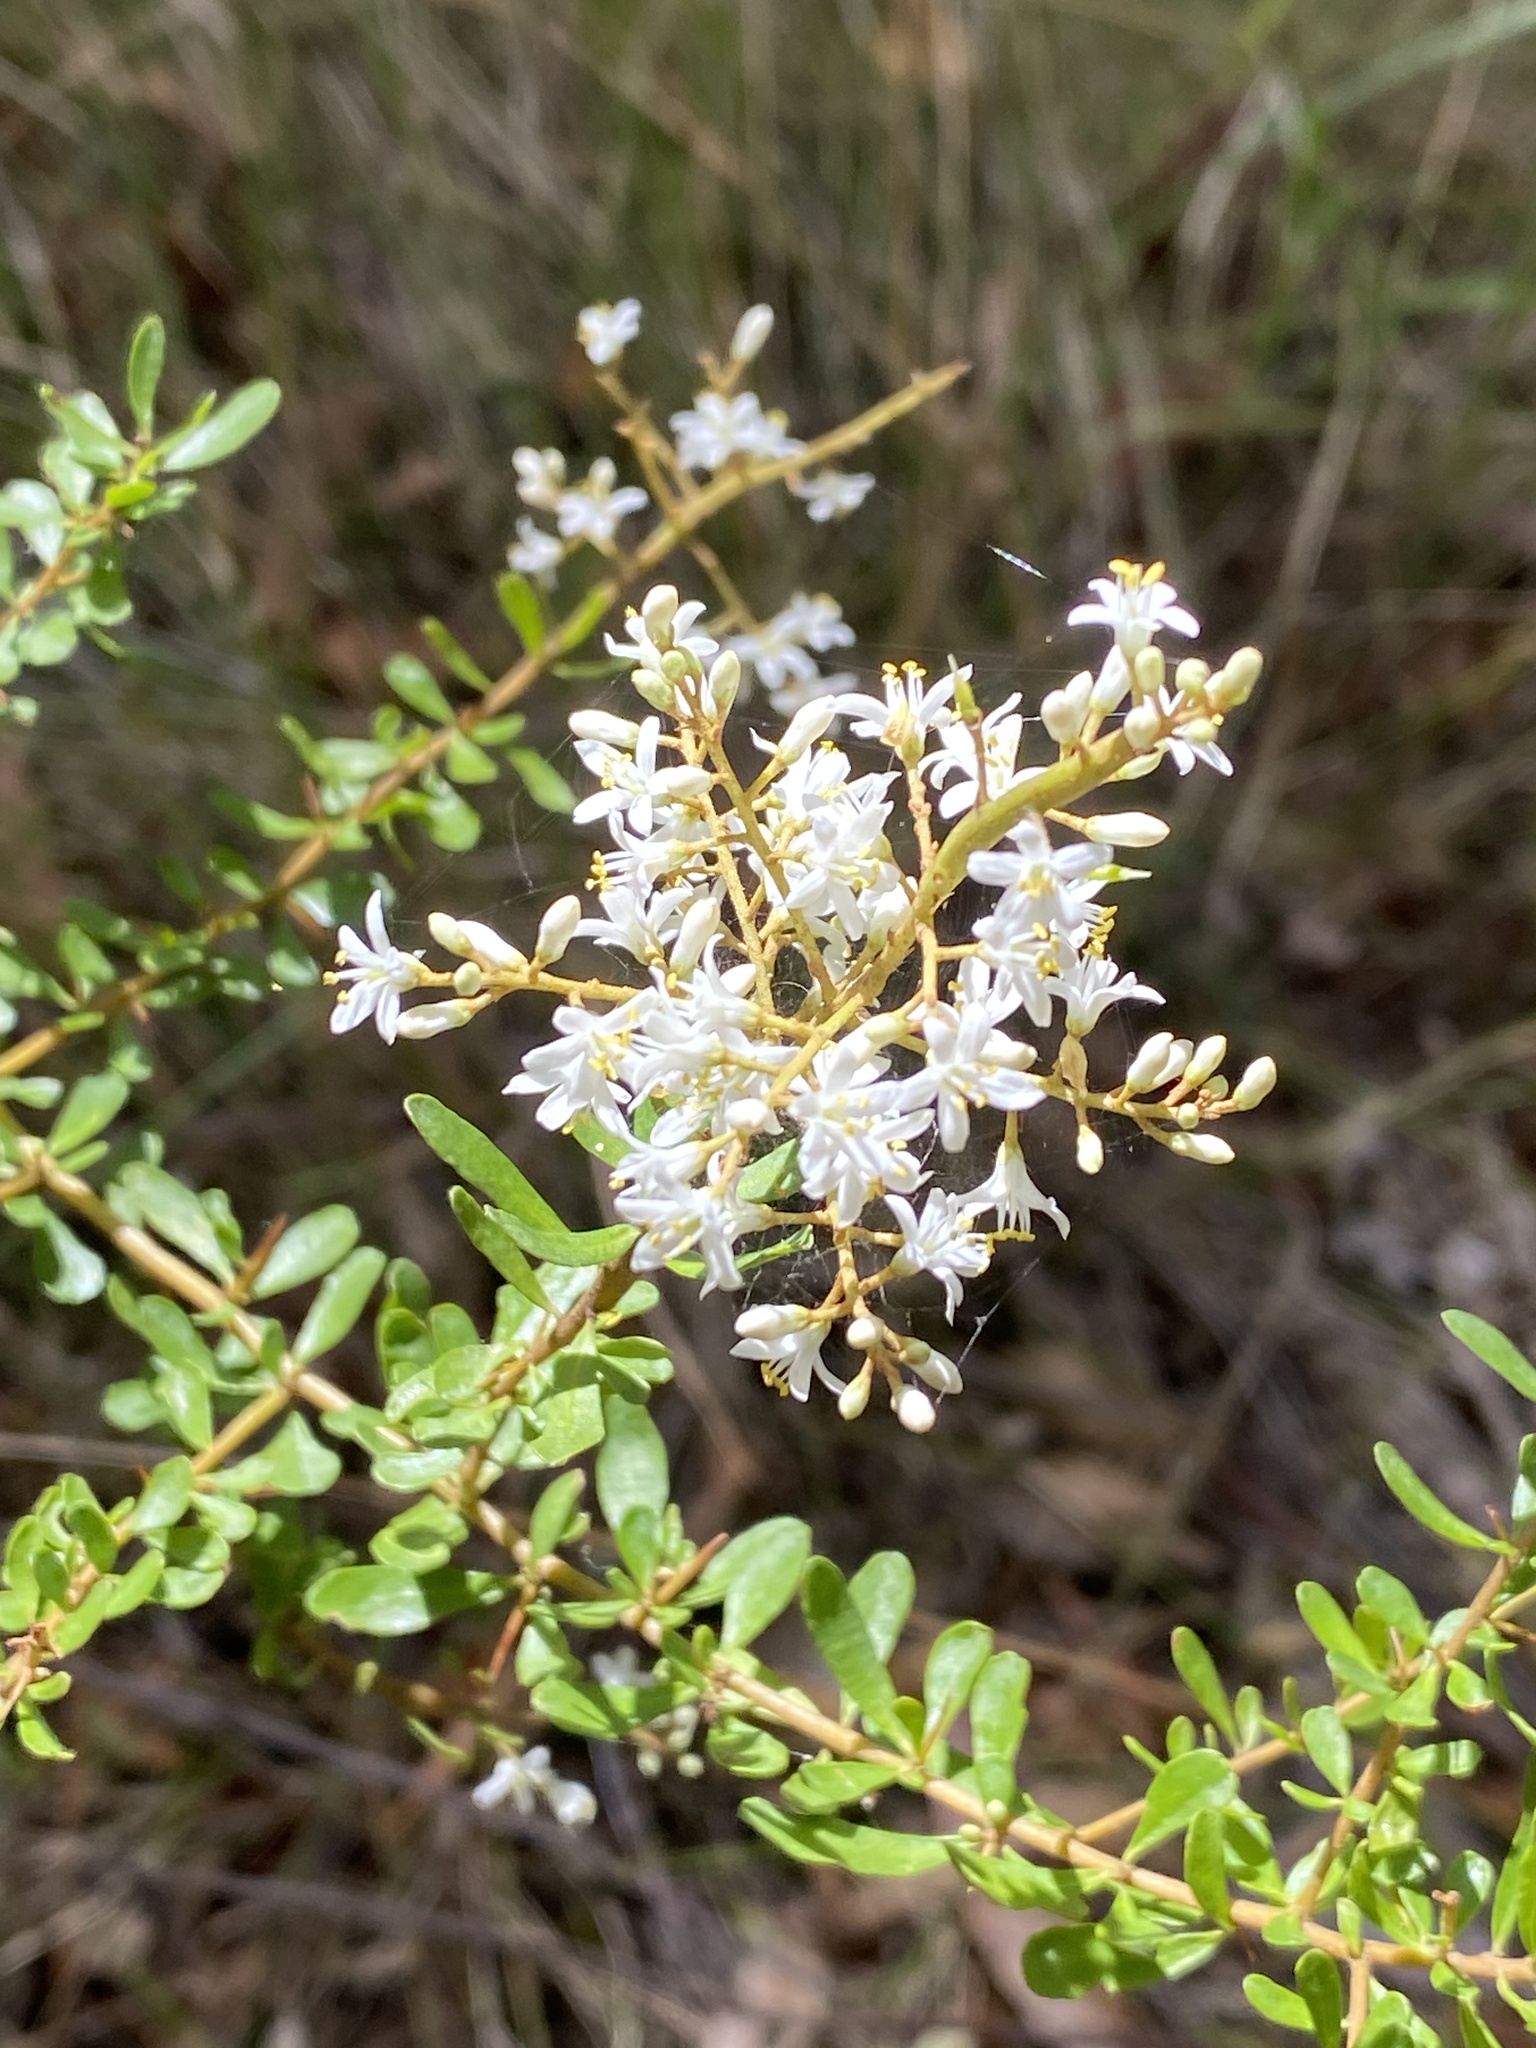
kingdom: Plantae
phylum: Tracheophyta
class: Magnoliopsida
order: Apiales
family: Pittosporaceae
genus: Bursaria
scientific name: Bursaria spinosa
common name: Australian blackthorn
